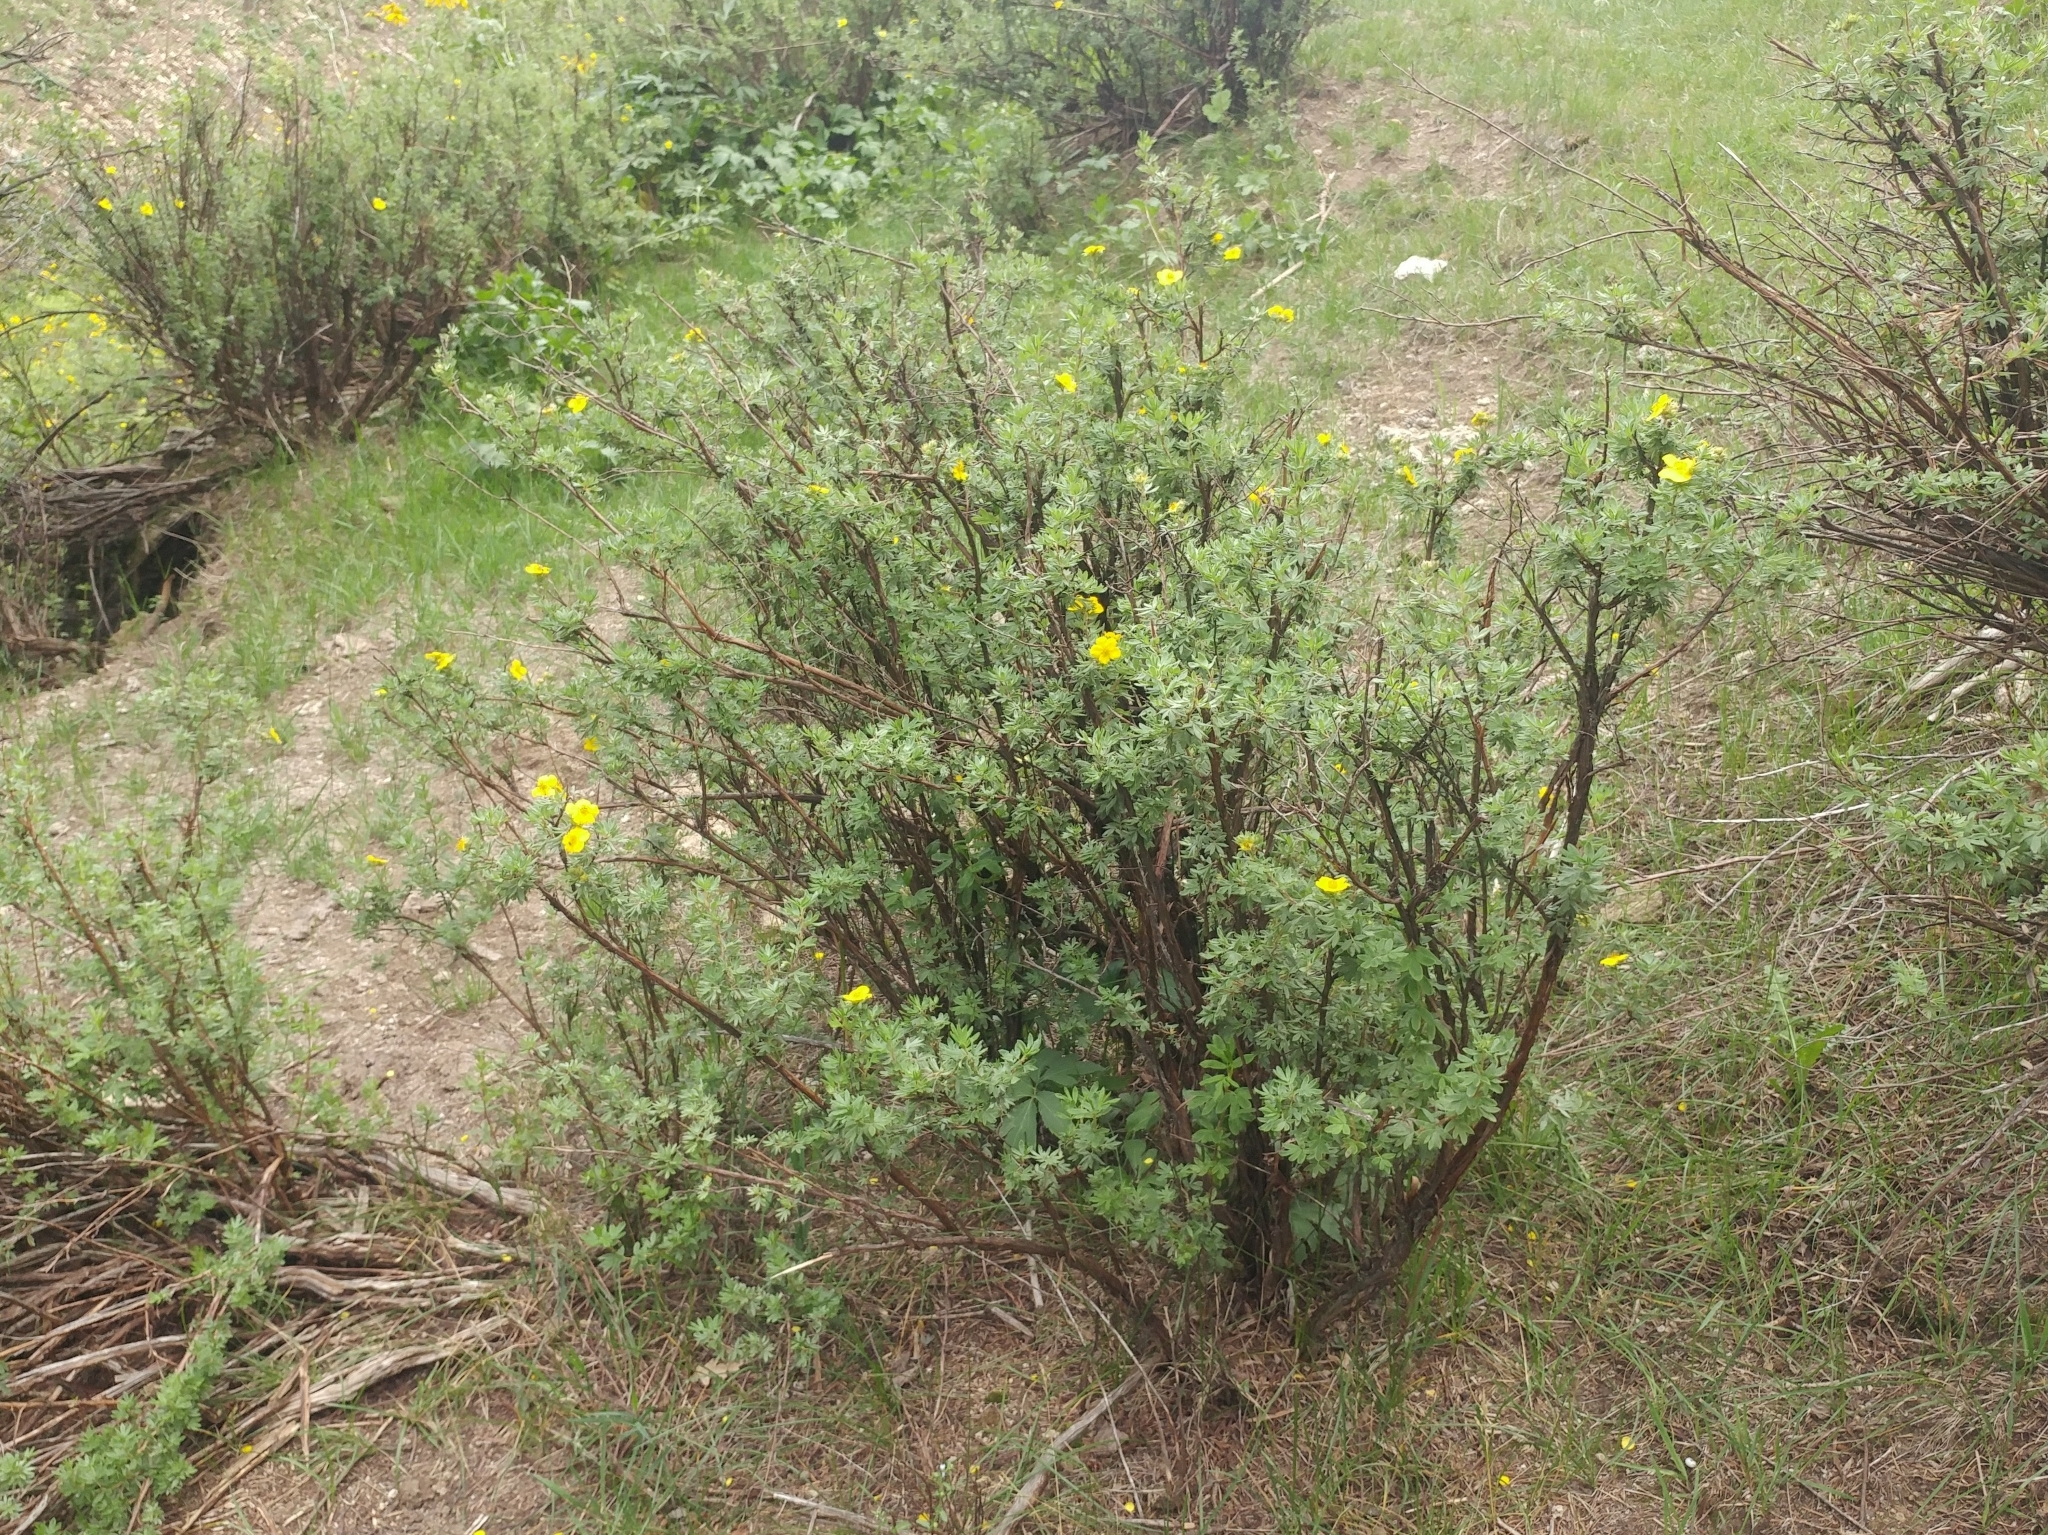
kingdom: Plantae
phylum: Tracheophyta
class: Magnoliopsida
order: Rosales
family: Rosaceae
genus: Dasiphora
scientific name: Dasiphora fruticosa
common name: Shrubby cinquefoil
